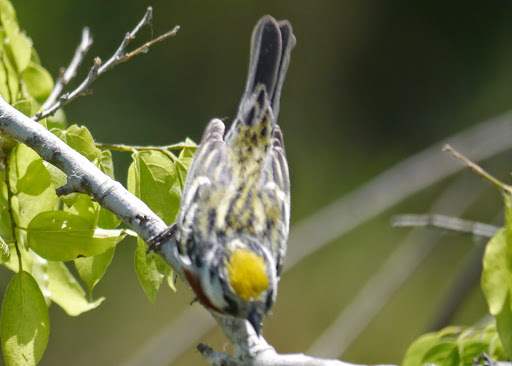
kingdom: Animalia
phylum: Chordata
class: Aves
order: Passeriformes
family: Parulidae
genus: Setophaga
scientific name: Setophaga pensylvanica
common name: Chestnut-sided warbler
